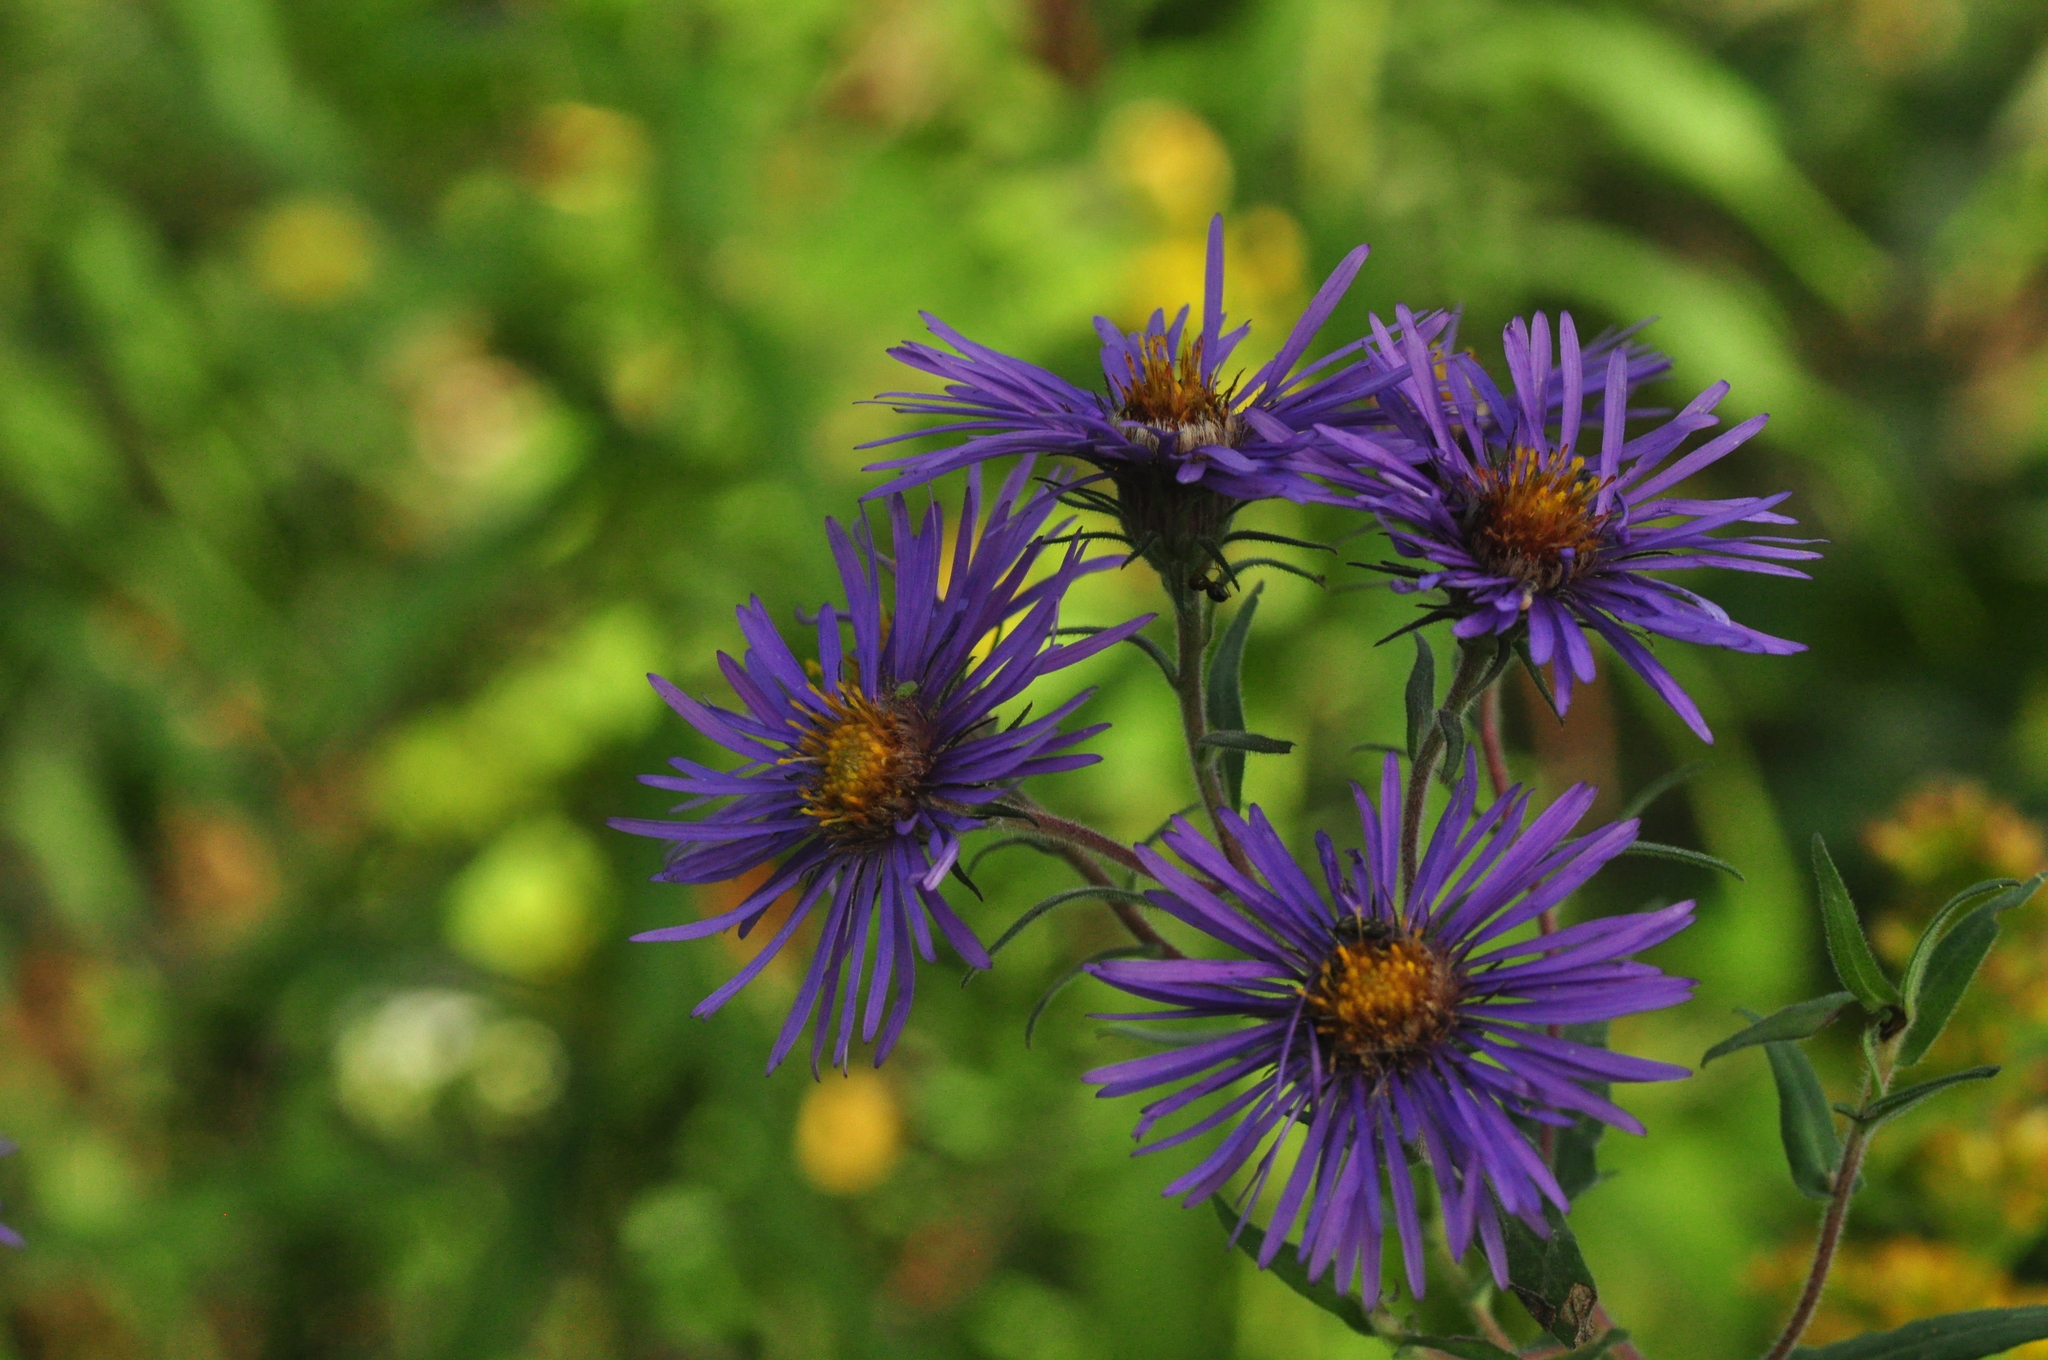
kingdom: Plantae
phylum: Tracheophyta
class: Magnoliopsida
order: Asterales
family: Asteraceae
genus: Symphyotrichum
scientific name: Symphyotrichum novae-angliae
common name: Michaelmas daisy
